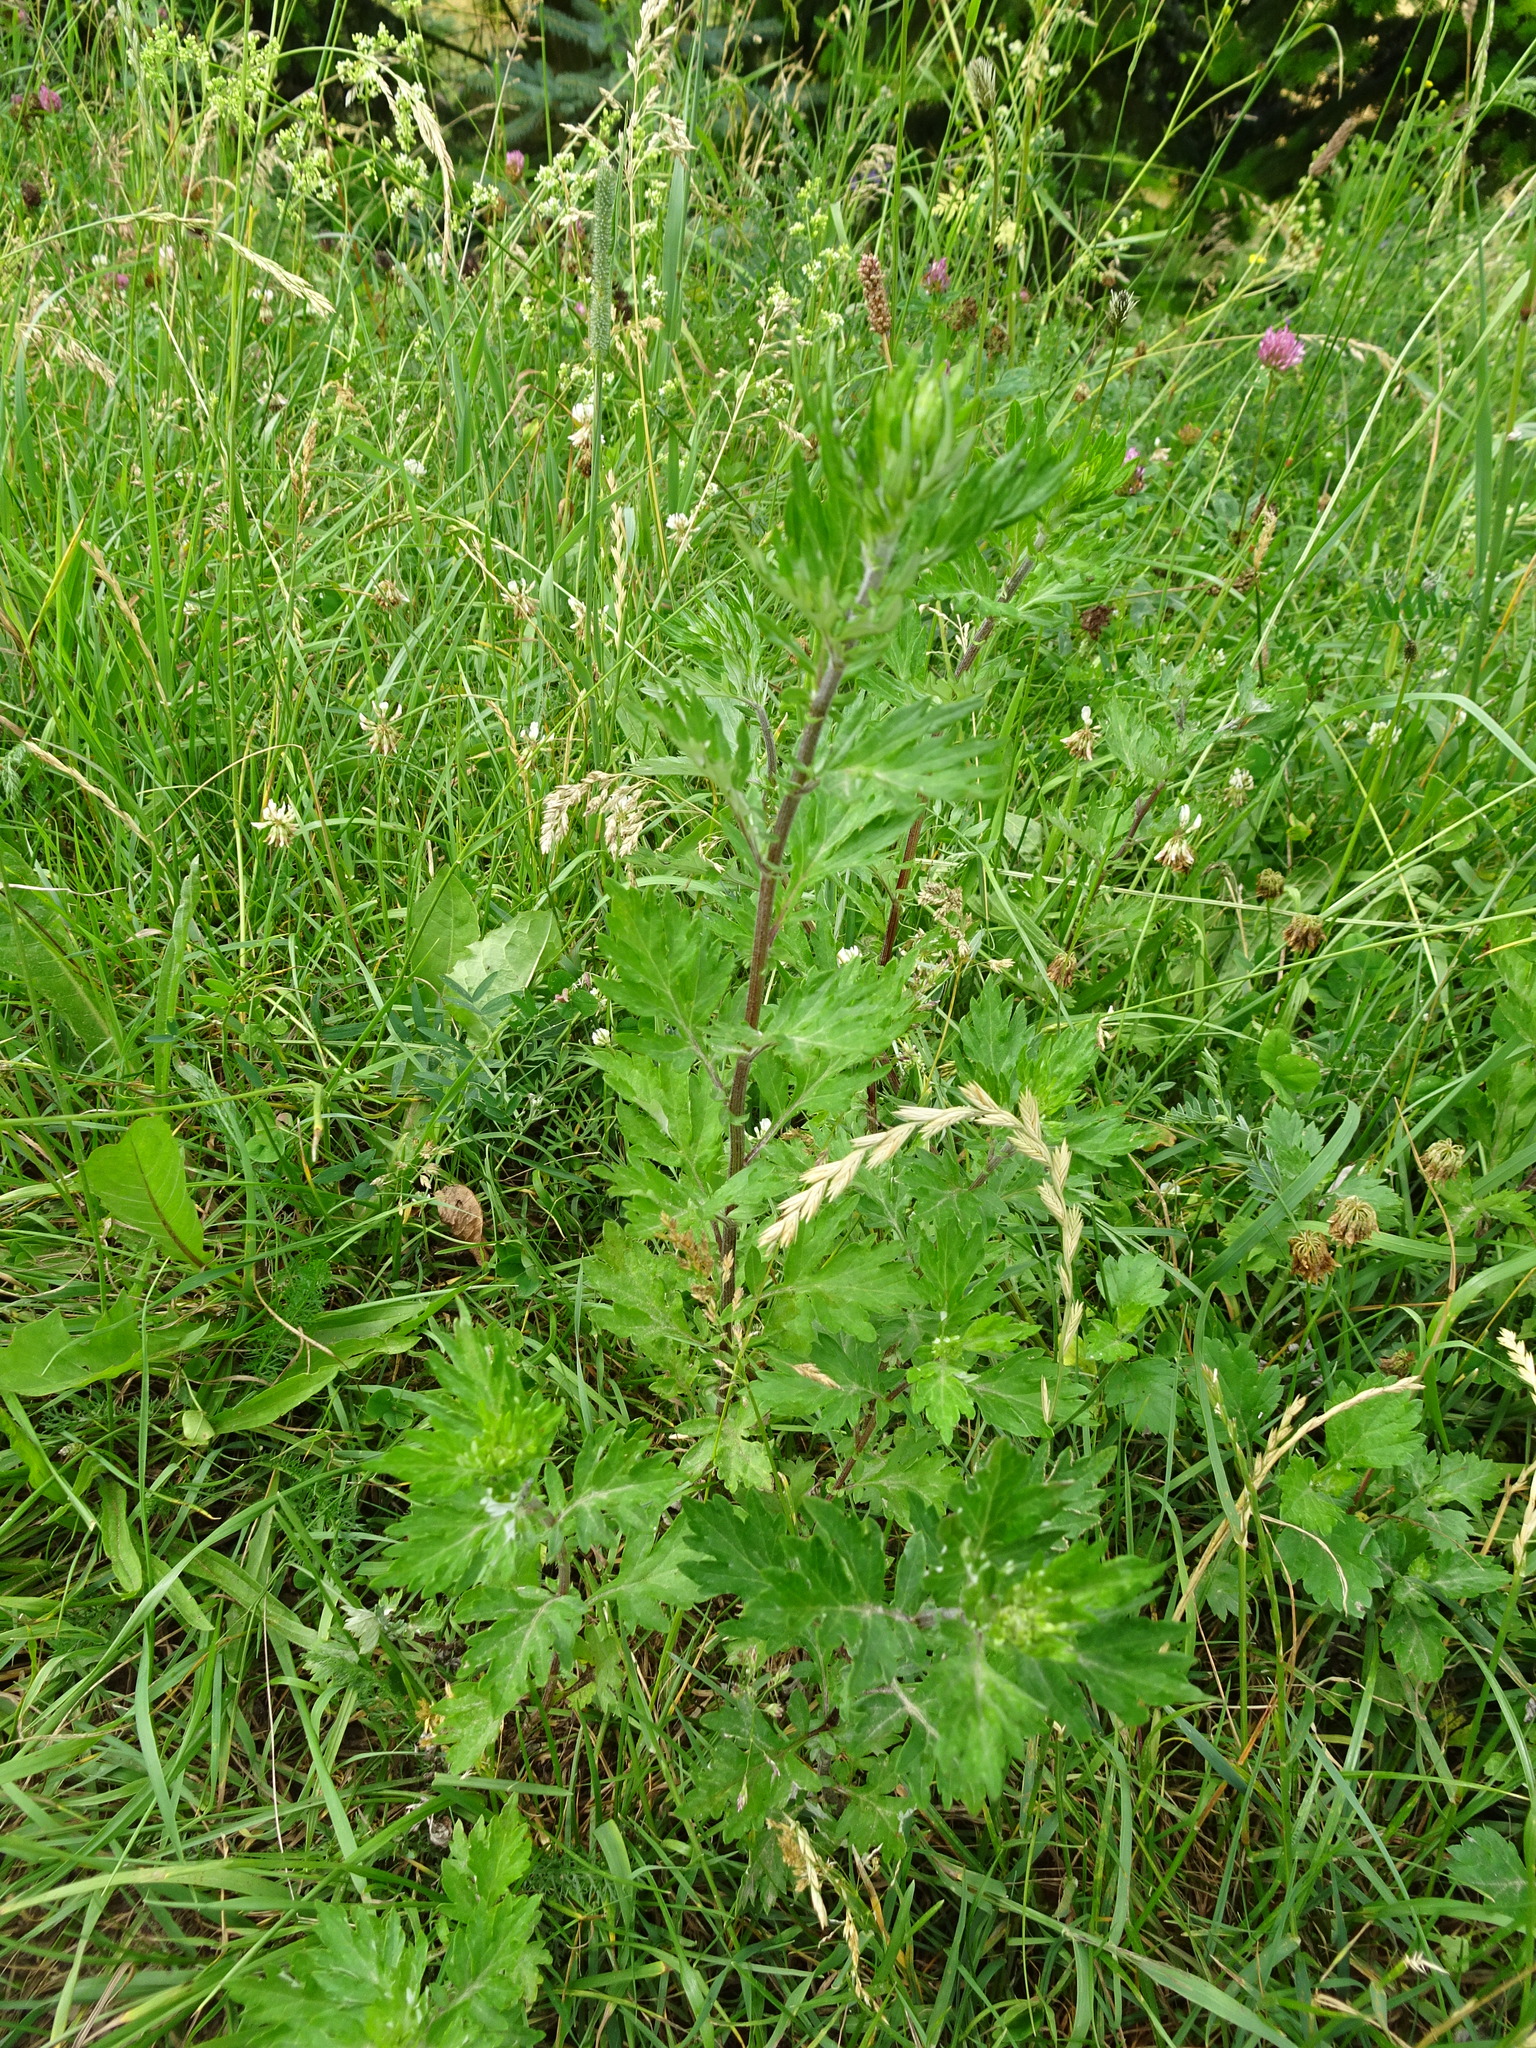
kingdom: Plantae
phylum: Tracheophyta
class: Magnoliopsida
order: Asterales
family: Asteraceae
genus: Artemisia
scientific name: Artemisia vulgaris
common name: Mugwort
